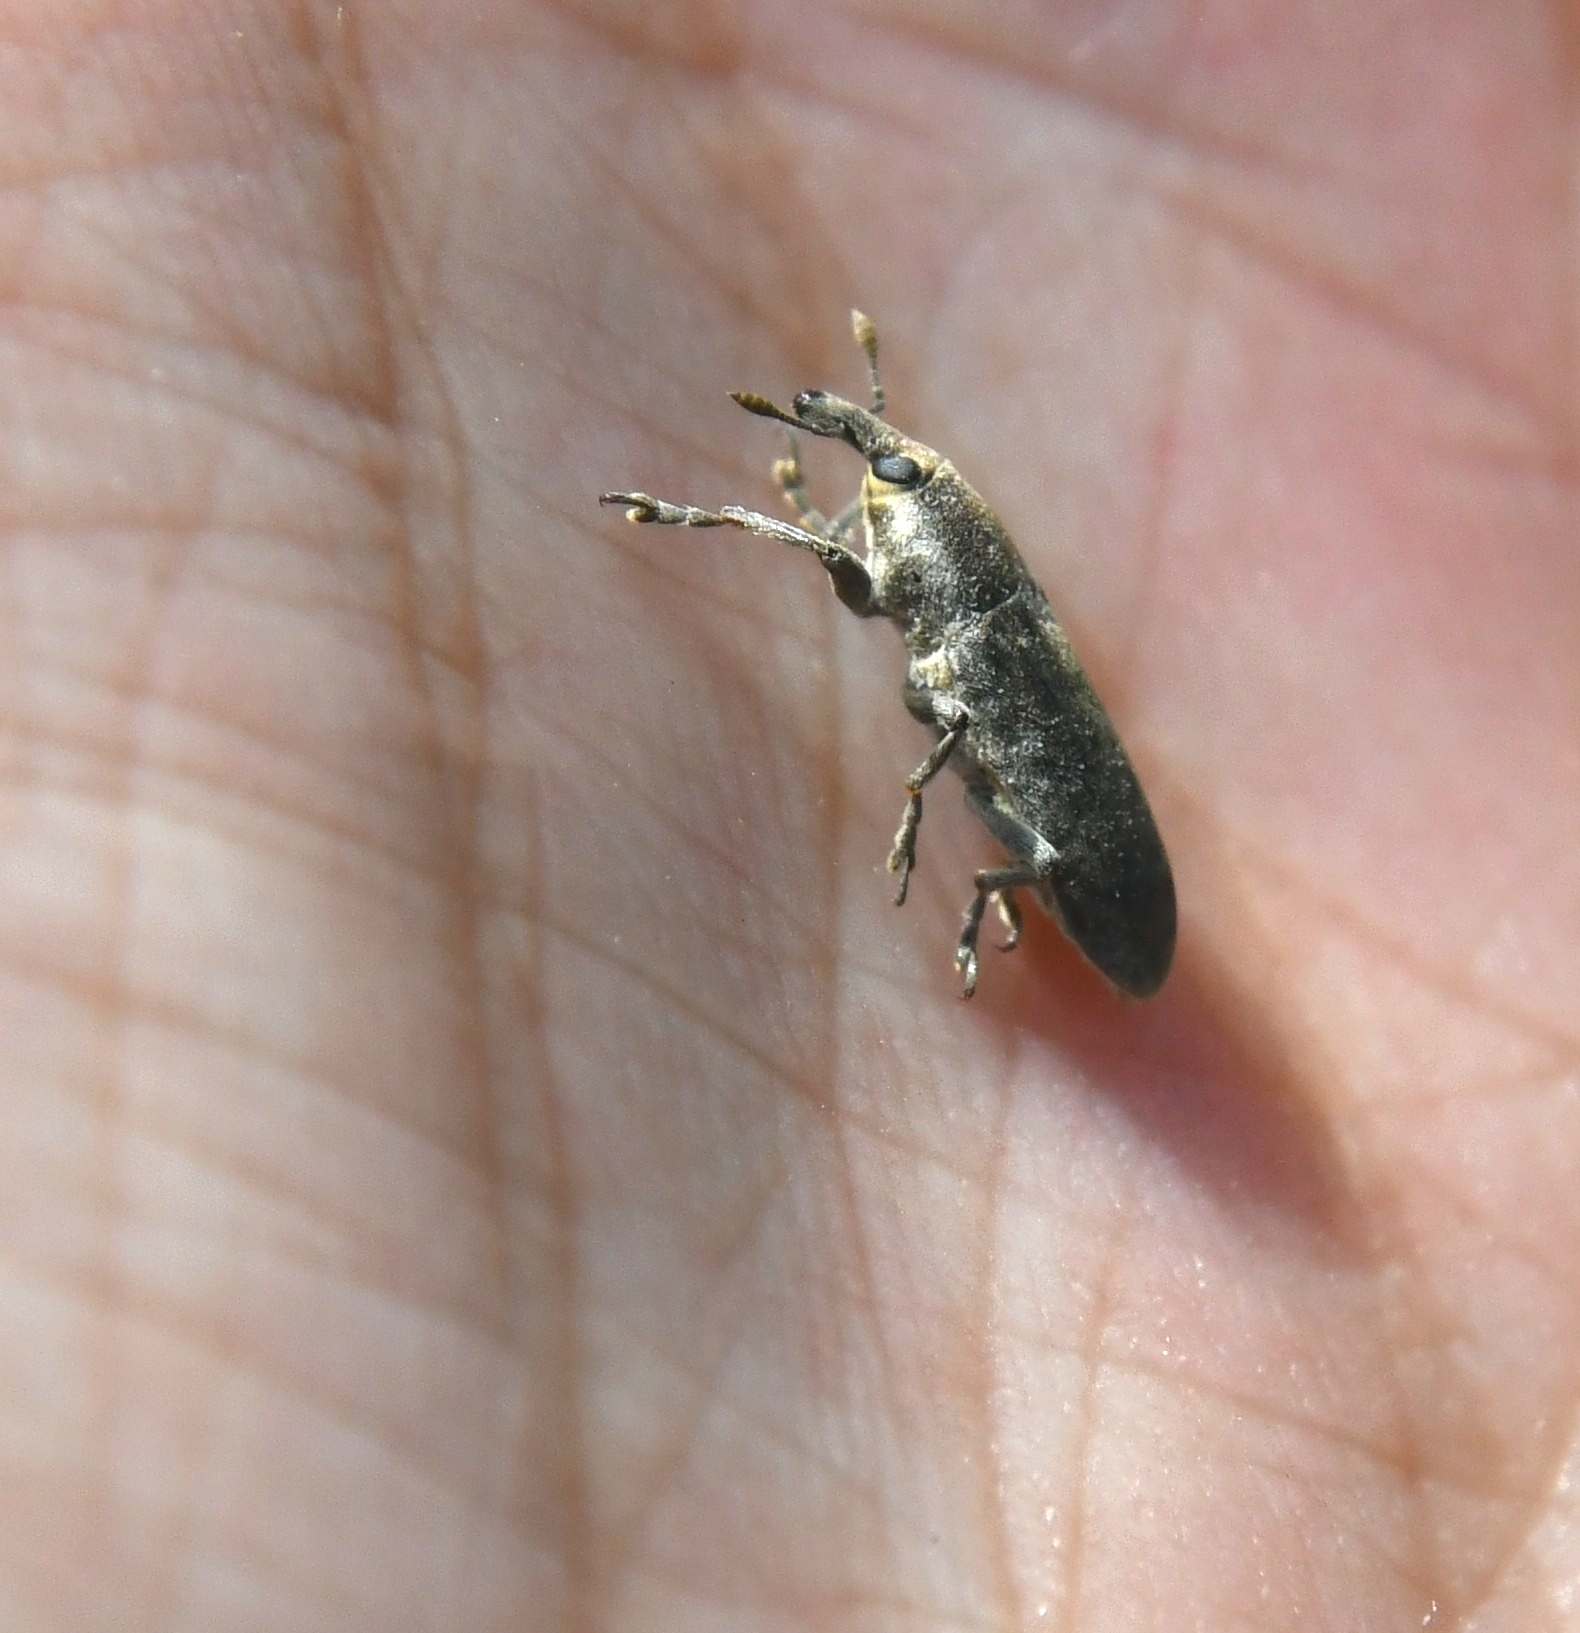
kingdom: Animalia
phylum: Arthropoda
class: Insecta
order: Coleoptera
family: Curculionidae
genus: Lixus
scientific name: Lixus rubicundus
